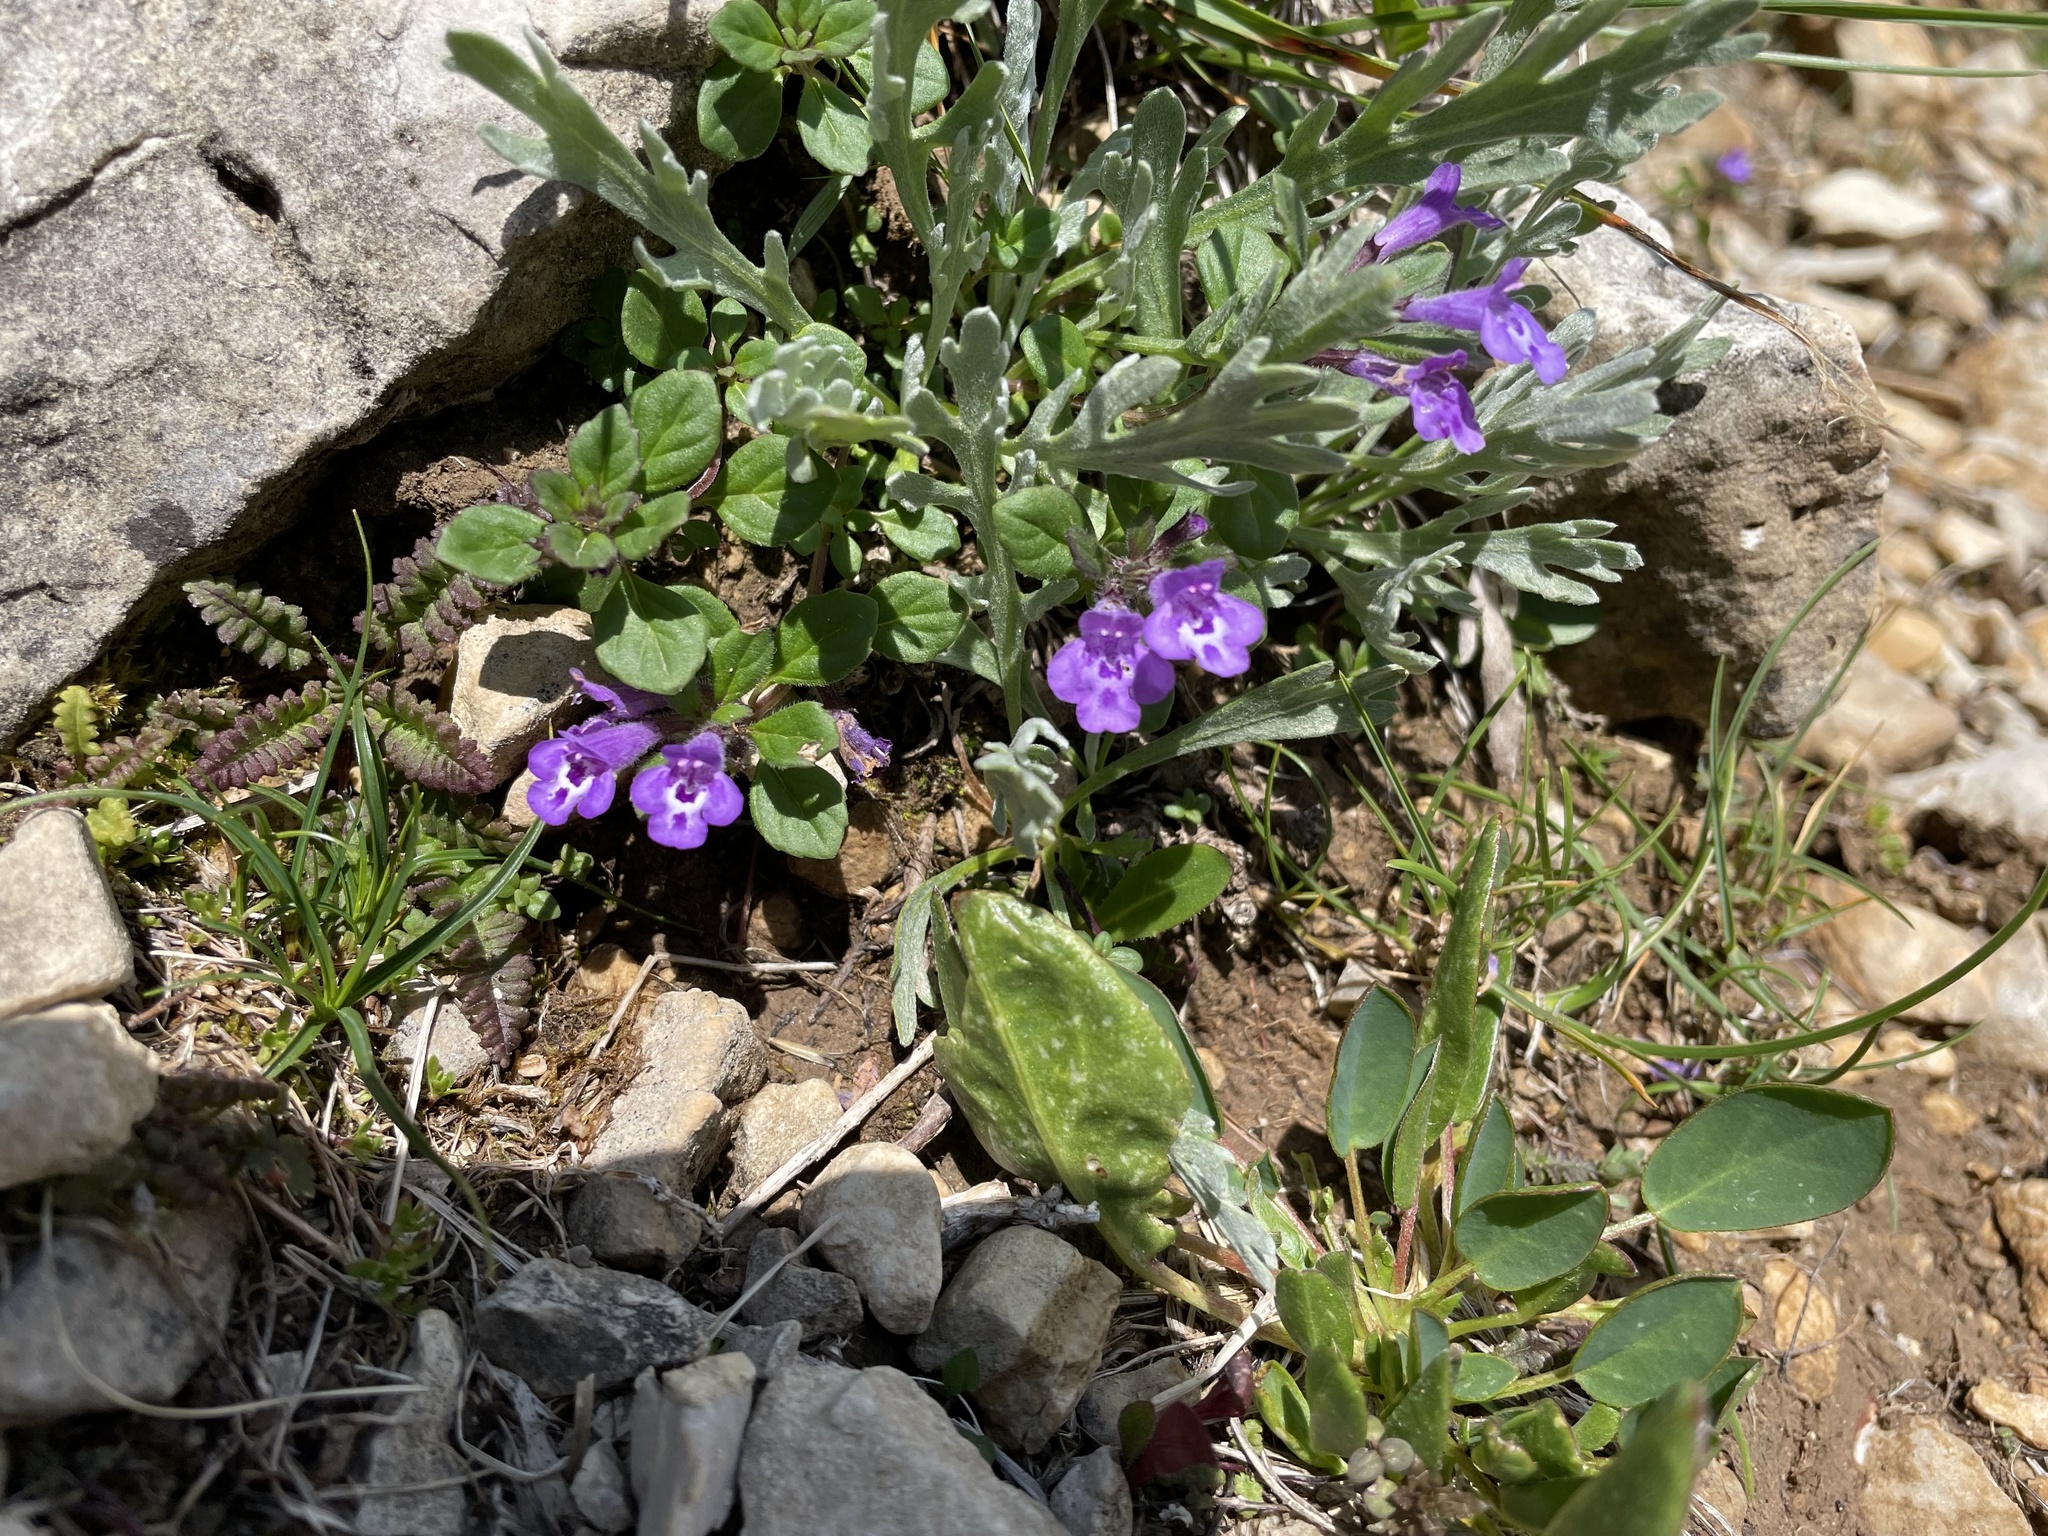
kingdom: Plantae
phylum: Tracheophyta
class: Magnoliopsida
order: Lamiales
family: Lamiaceae
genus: Clinopodium
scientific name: Clinopodium alpinum
